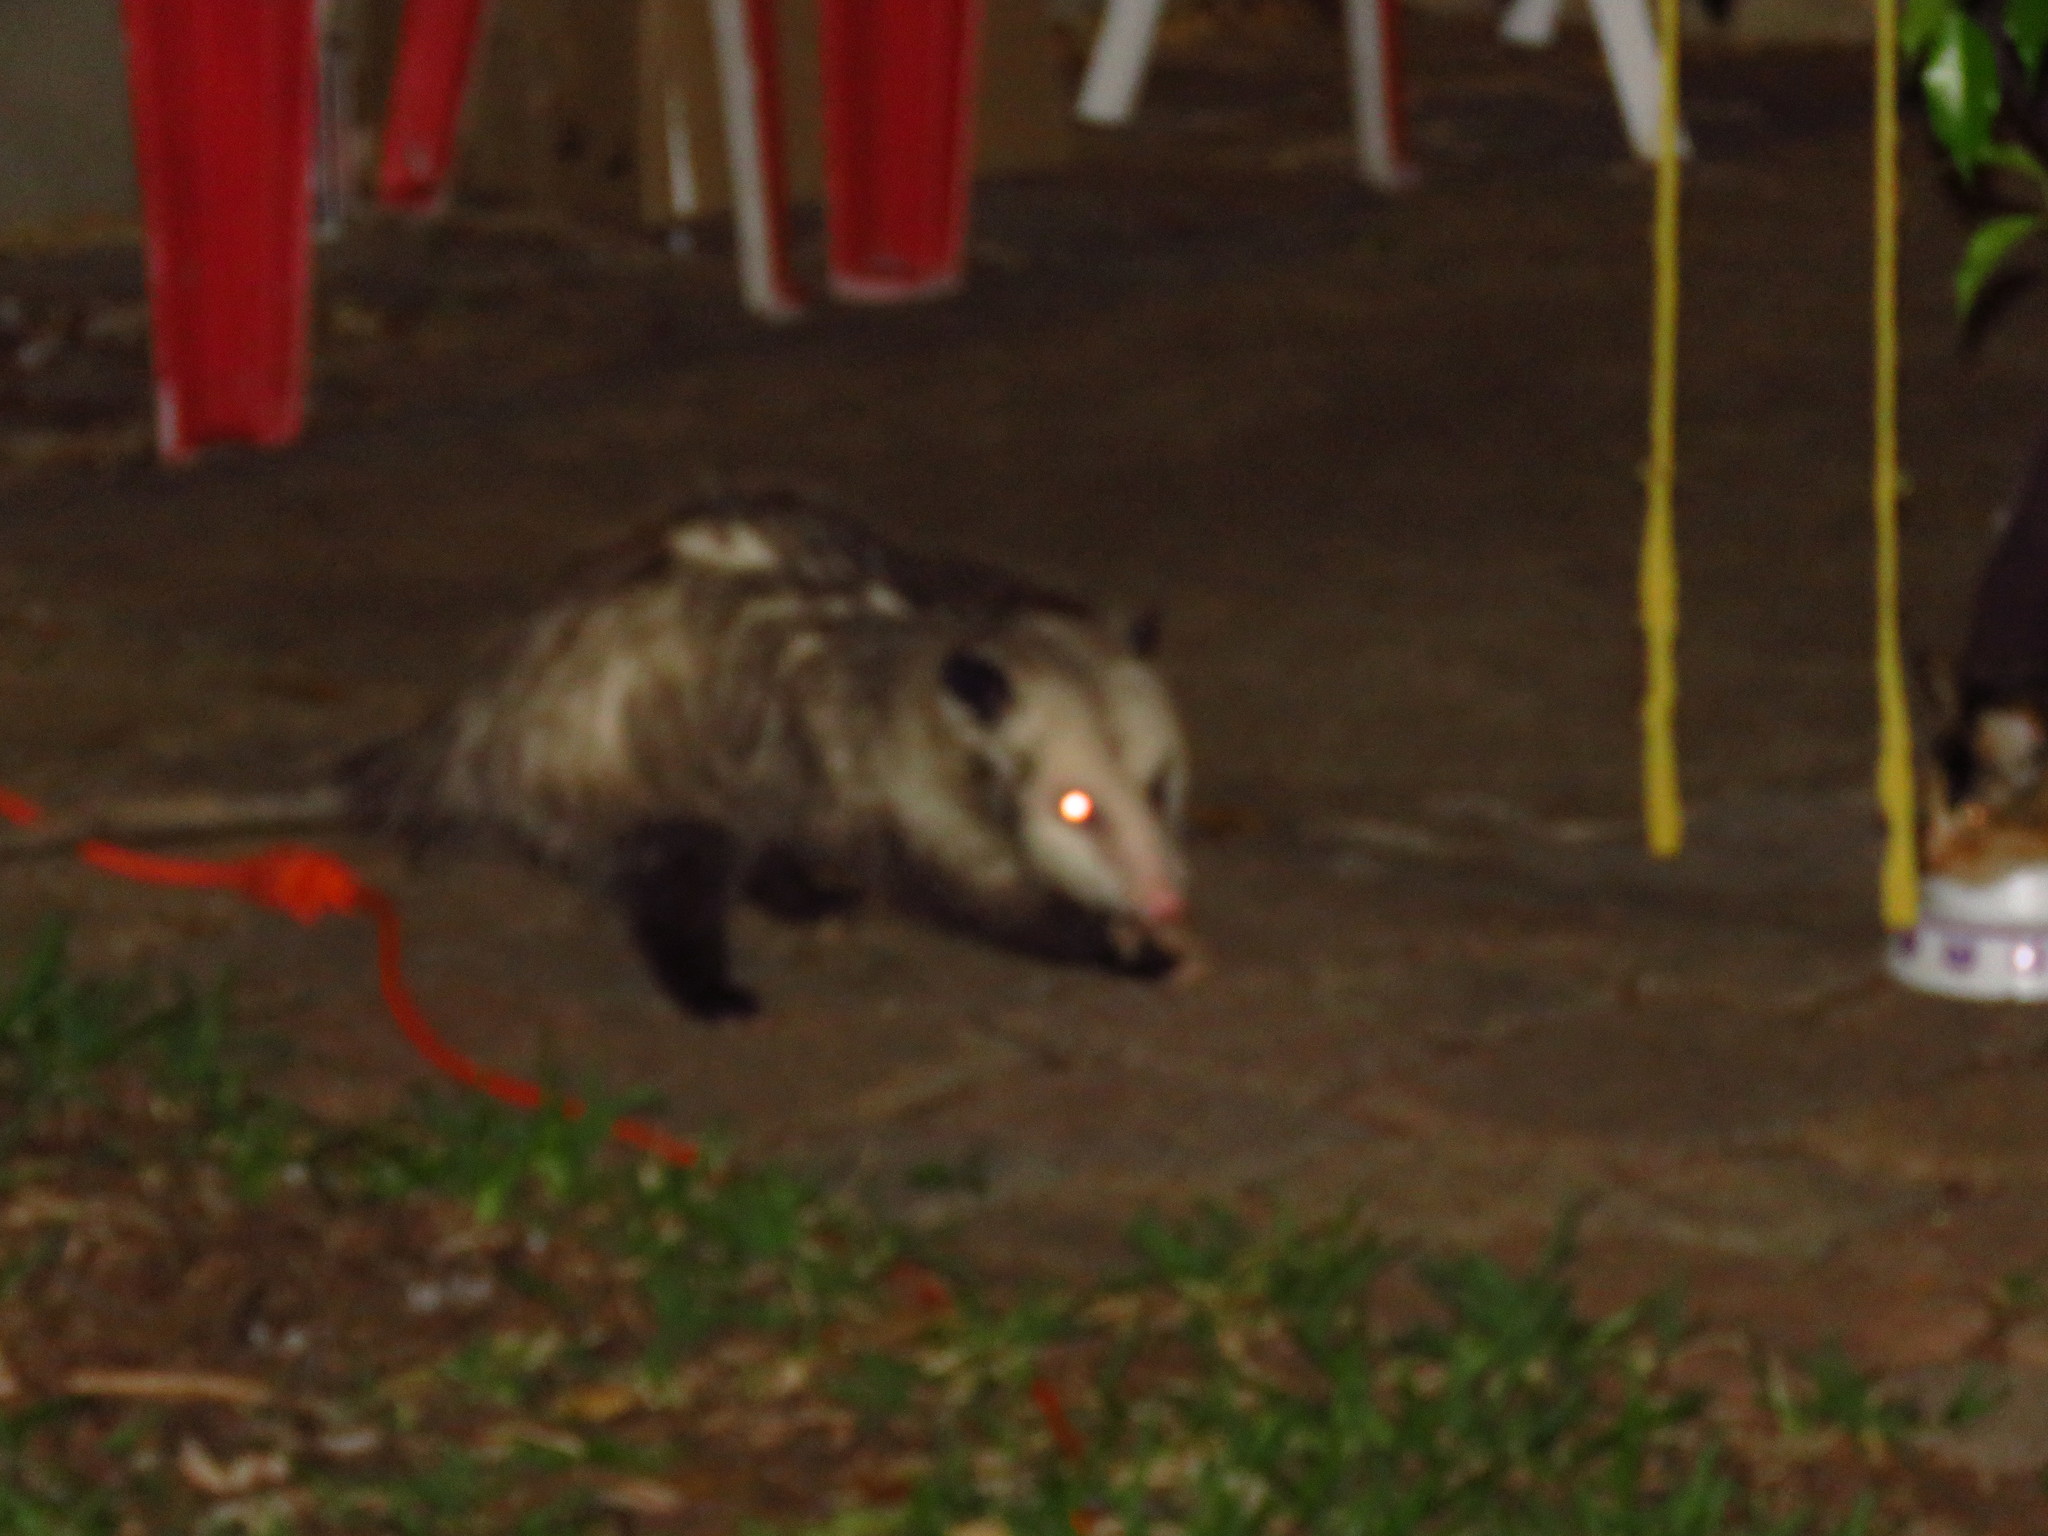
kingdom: Animalia
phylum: Chordata
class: Mammalia
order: Didelphimorphia
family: Didelphidae
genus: Didelphis
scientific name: Didelphis virginiana
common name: Virginia opossum
